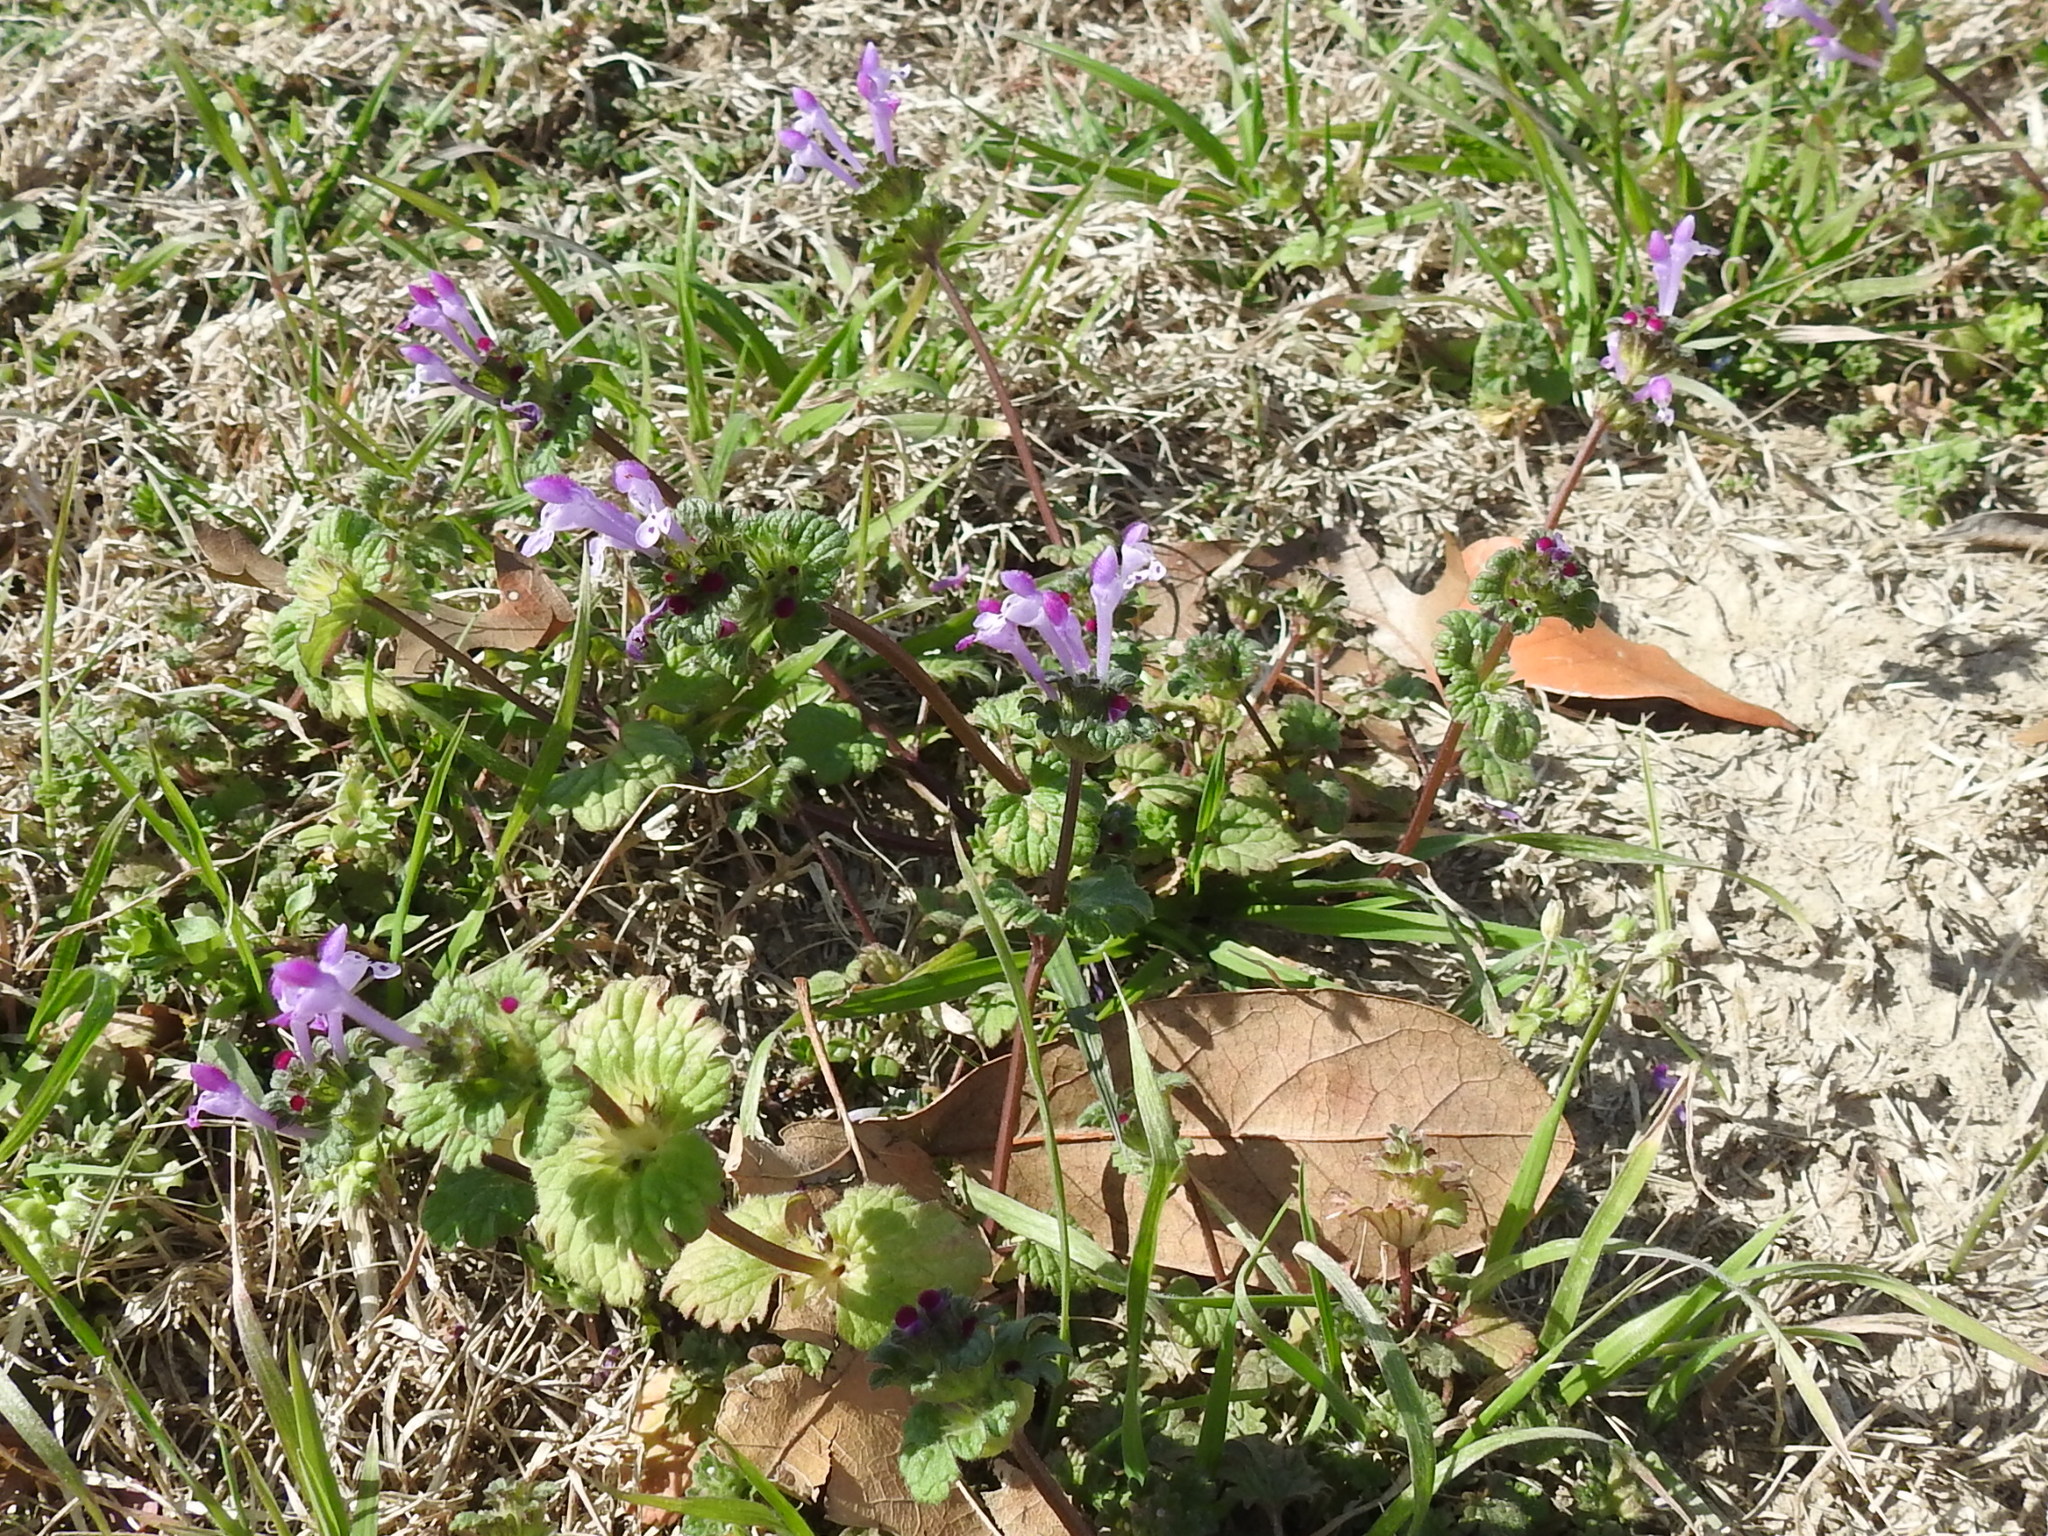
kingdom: Plantae
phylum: Tracheophyta
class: Magnoliopsida
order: Lamiales
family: Lamiaceae
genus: Lamium
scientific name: Lamium amplexicaule
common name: Henbit dead-nettle
